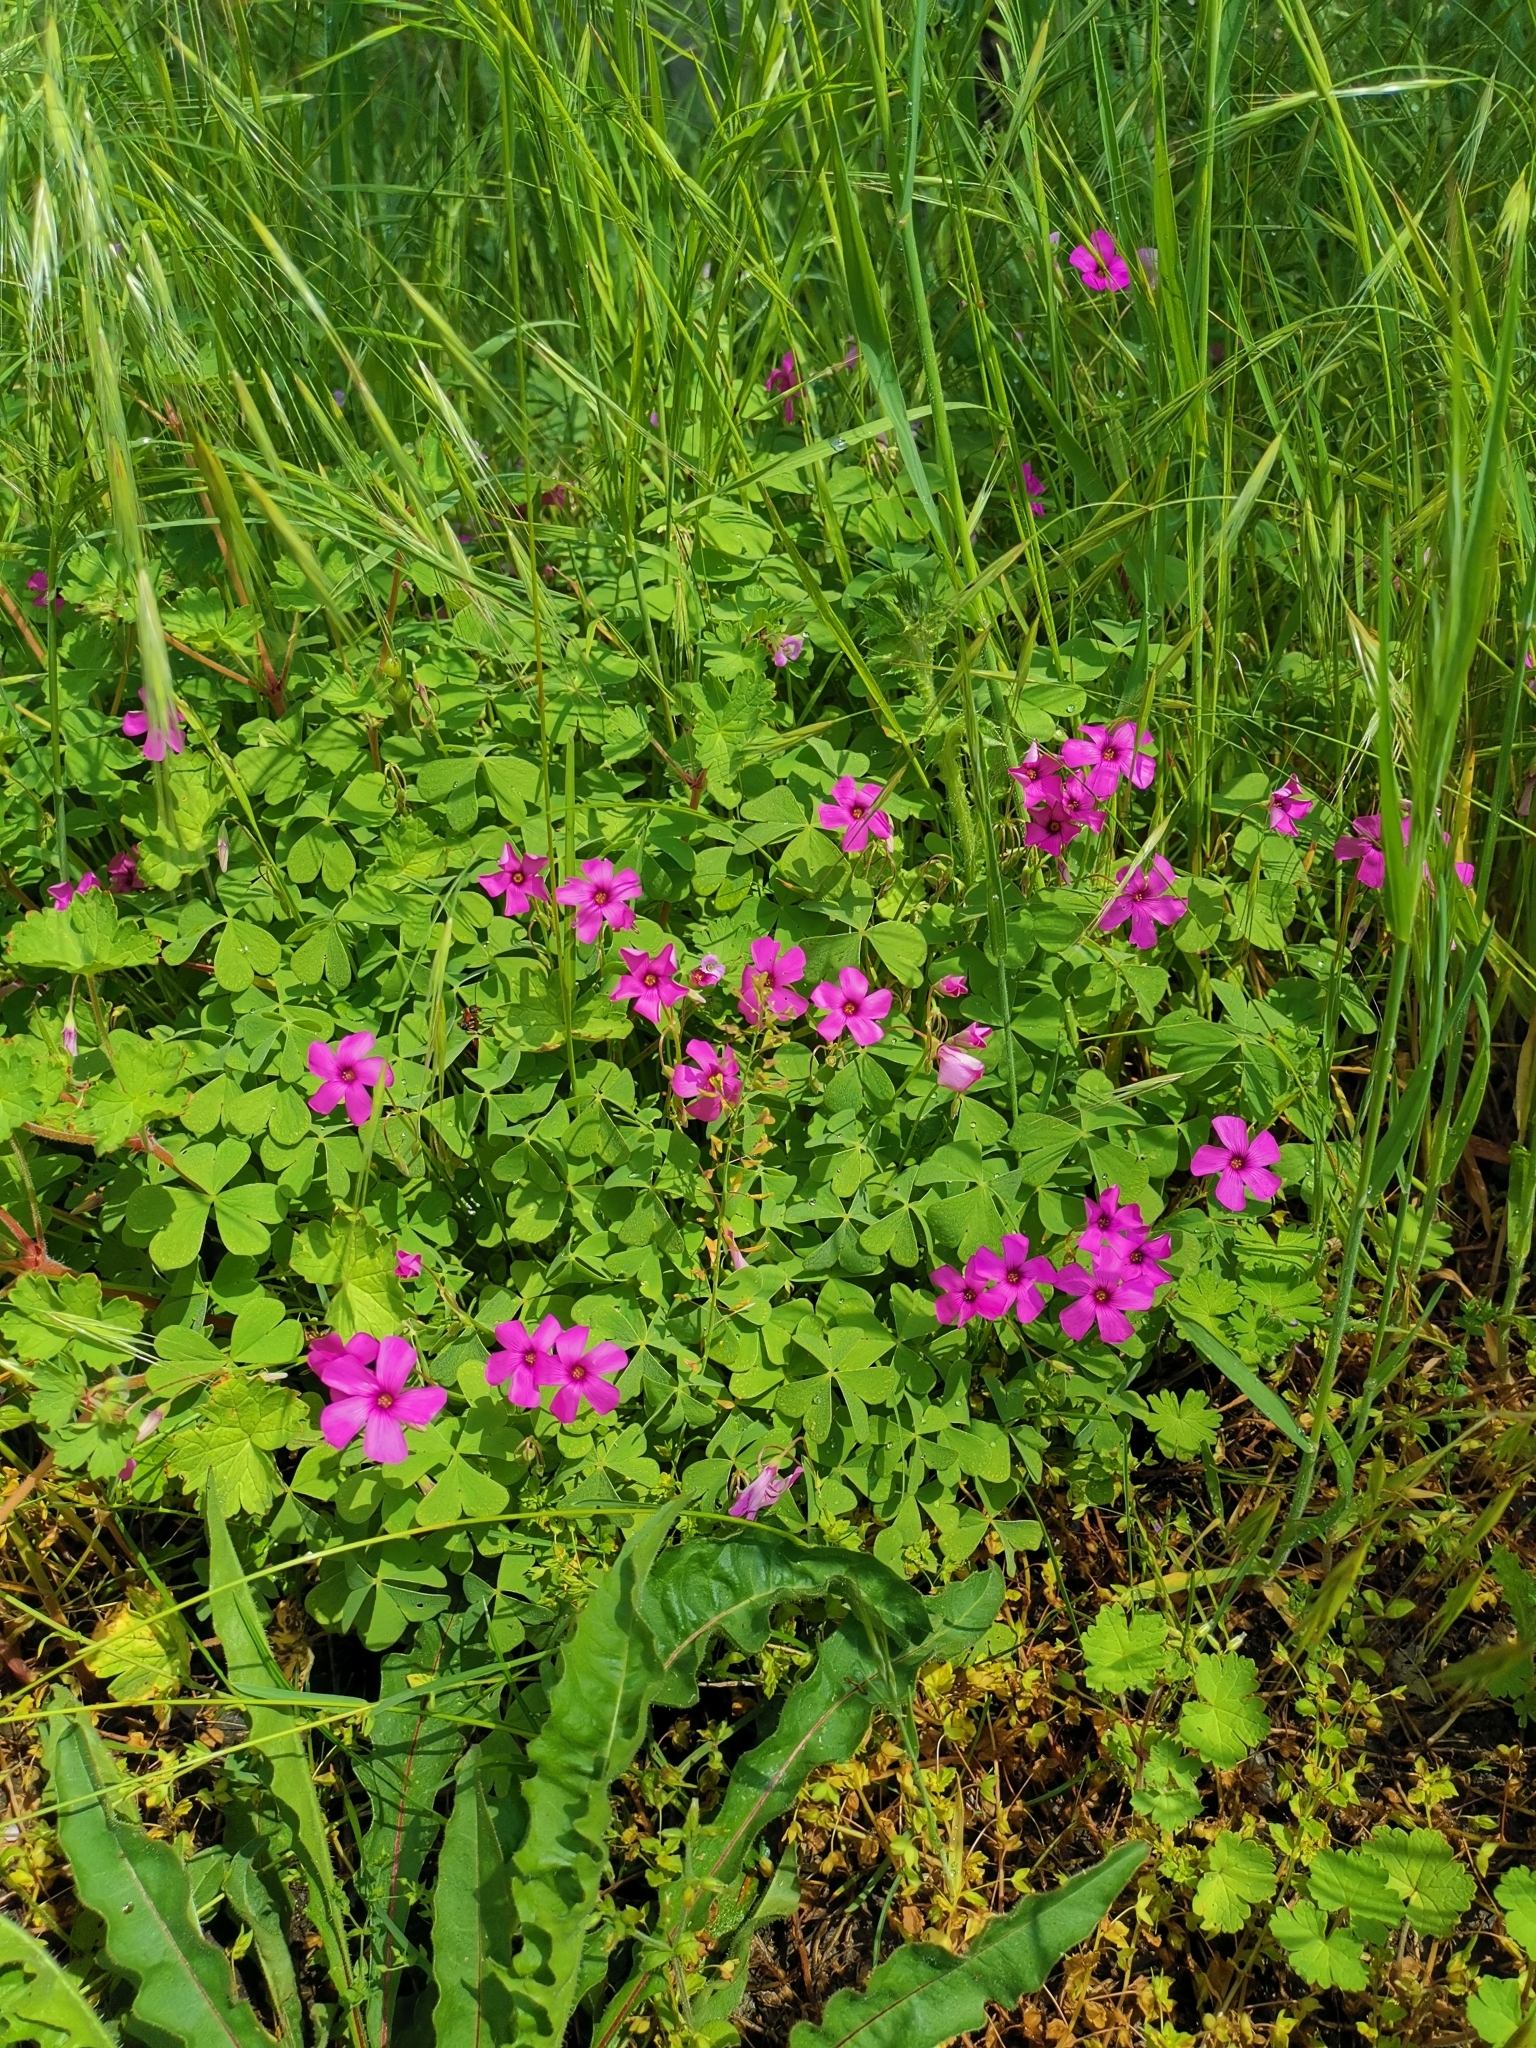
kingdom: Plantae
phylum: Tracheophyta
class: Magnoliopsida
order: Oxalidales
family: Oxalidaceae
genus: Oxalis
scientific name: Oxalis articulata
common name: Pink-sorrel
